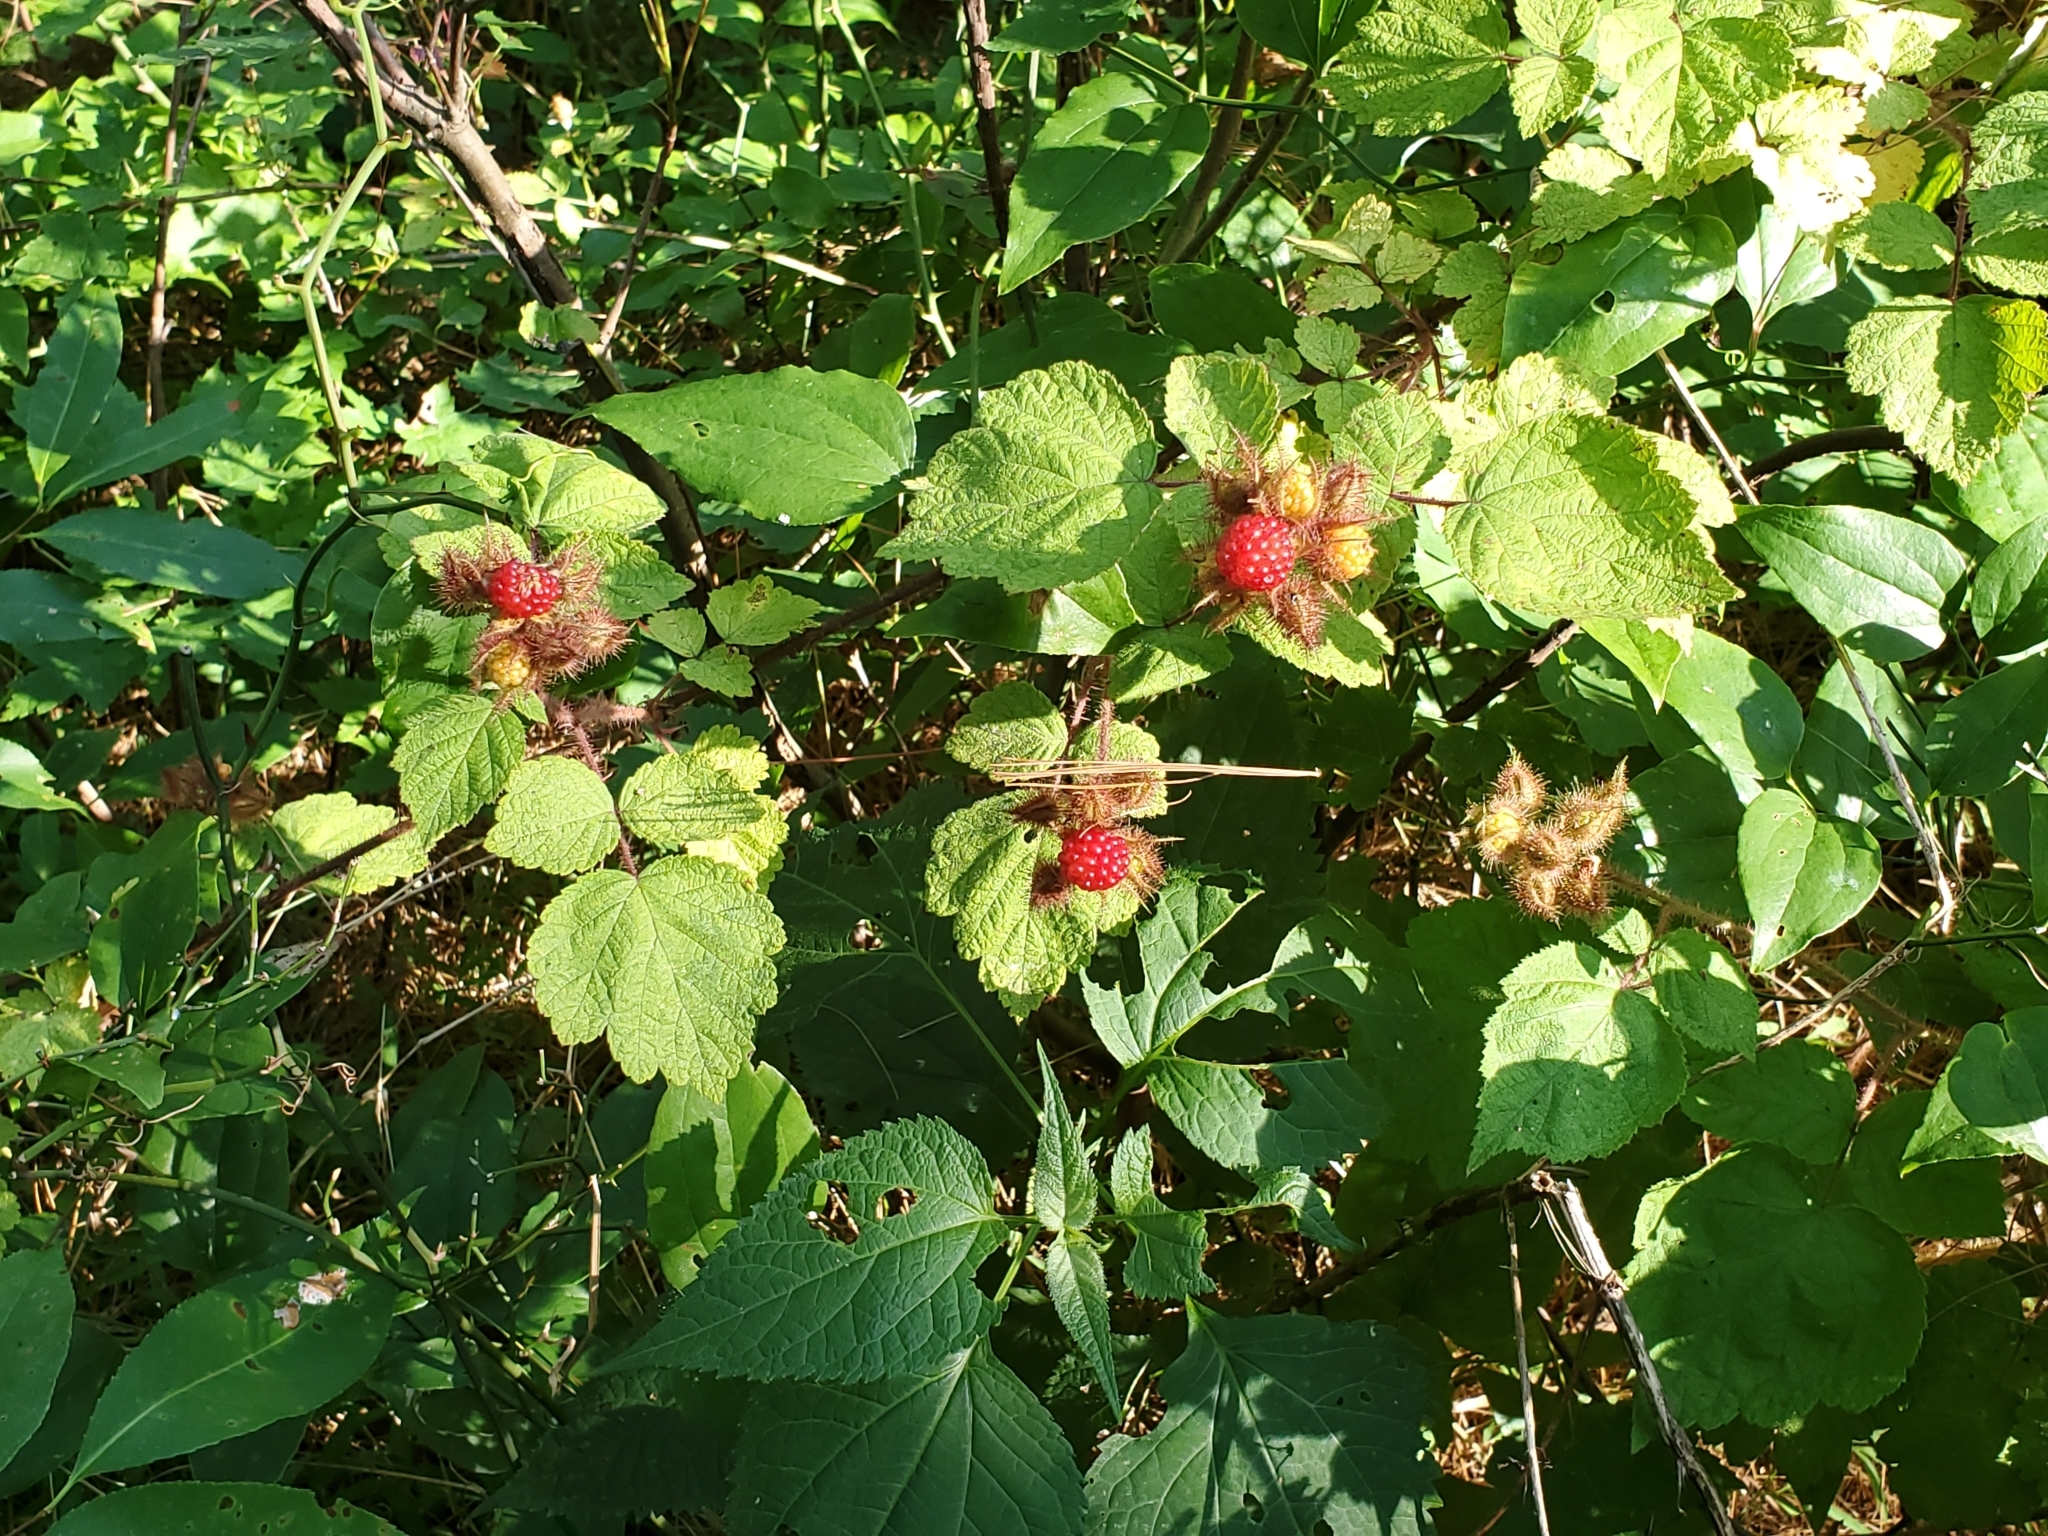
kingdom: Plantae
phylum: Tracheophyta
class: Magnoliopsida
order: Rosales
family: Rosaceae
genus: Rubus
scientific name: Rubus phoenicolasius
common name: Japanese wineberry
